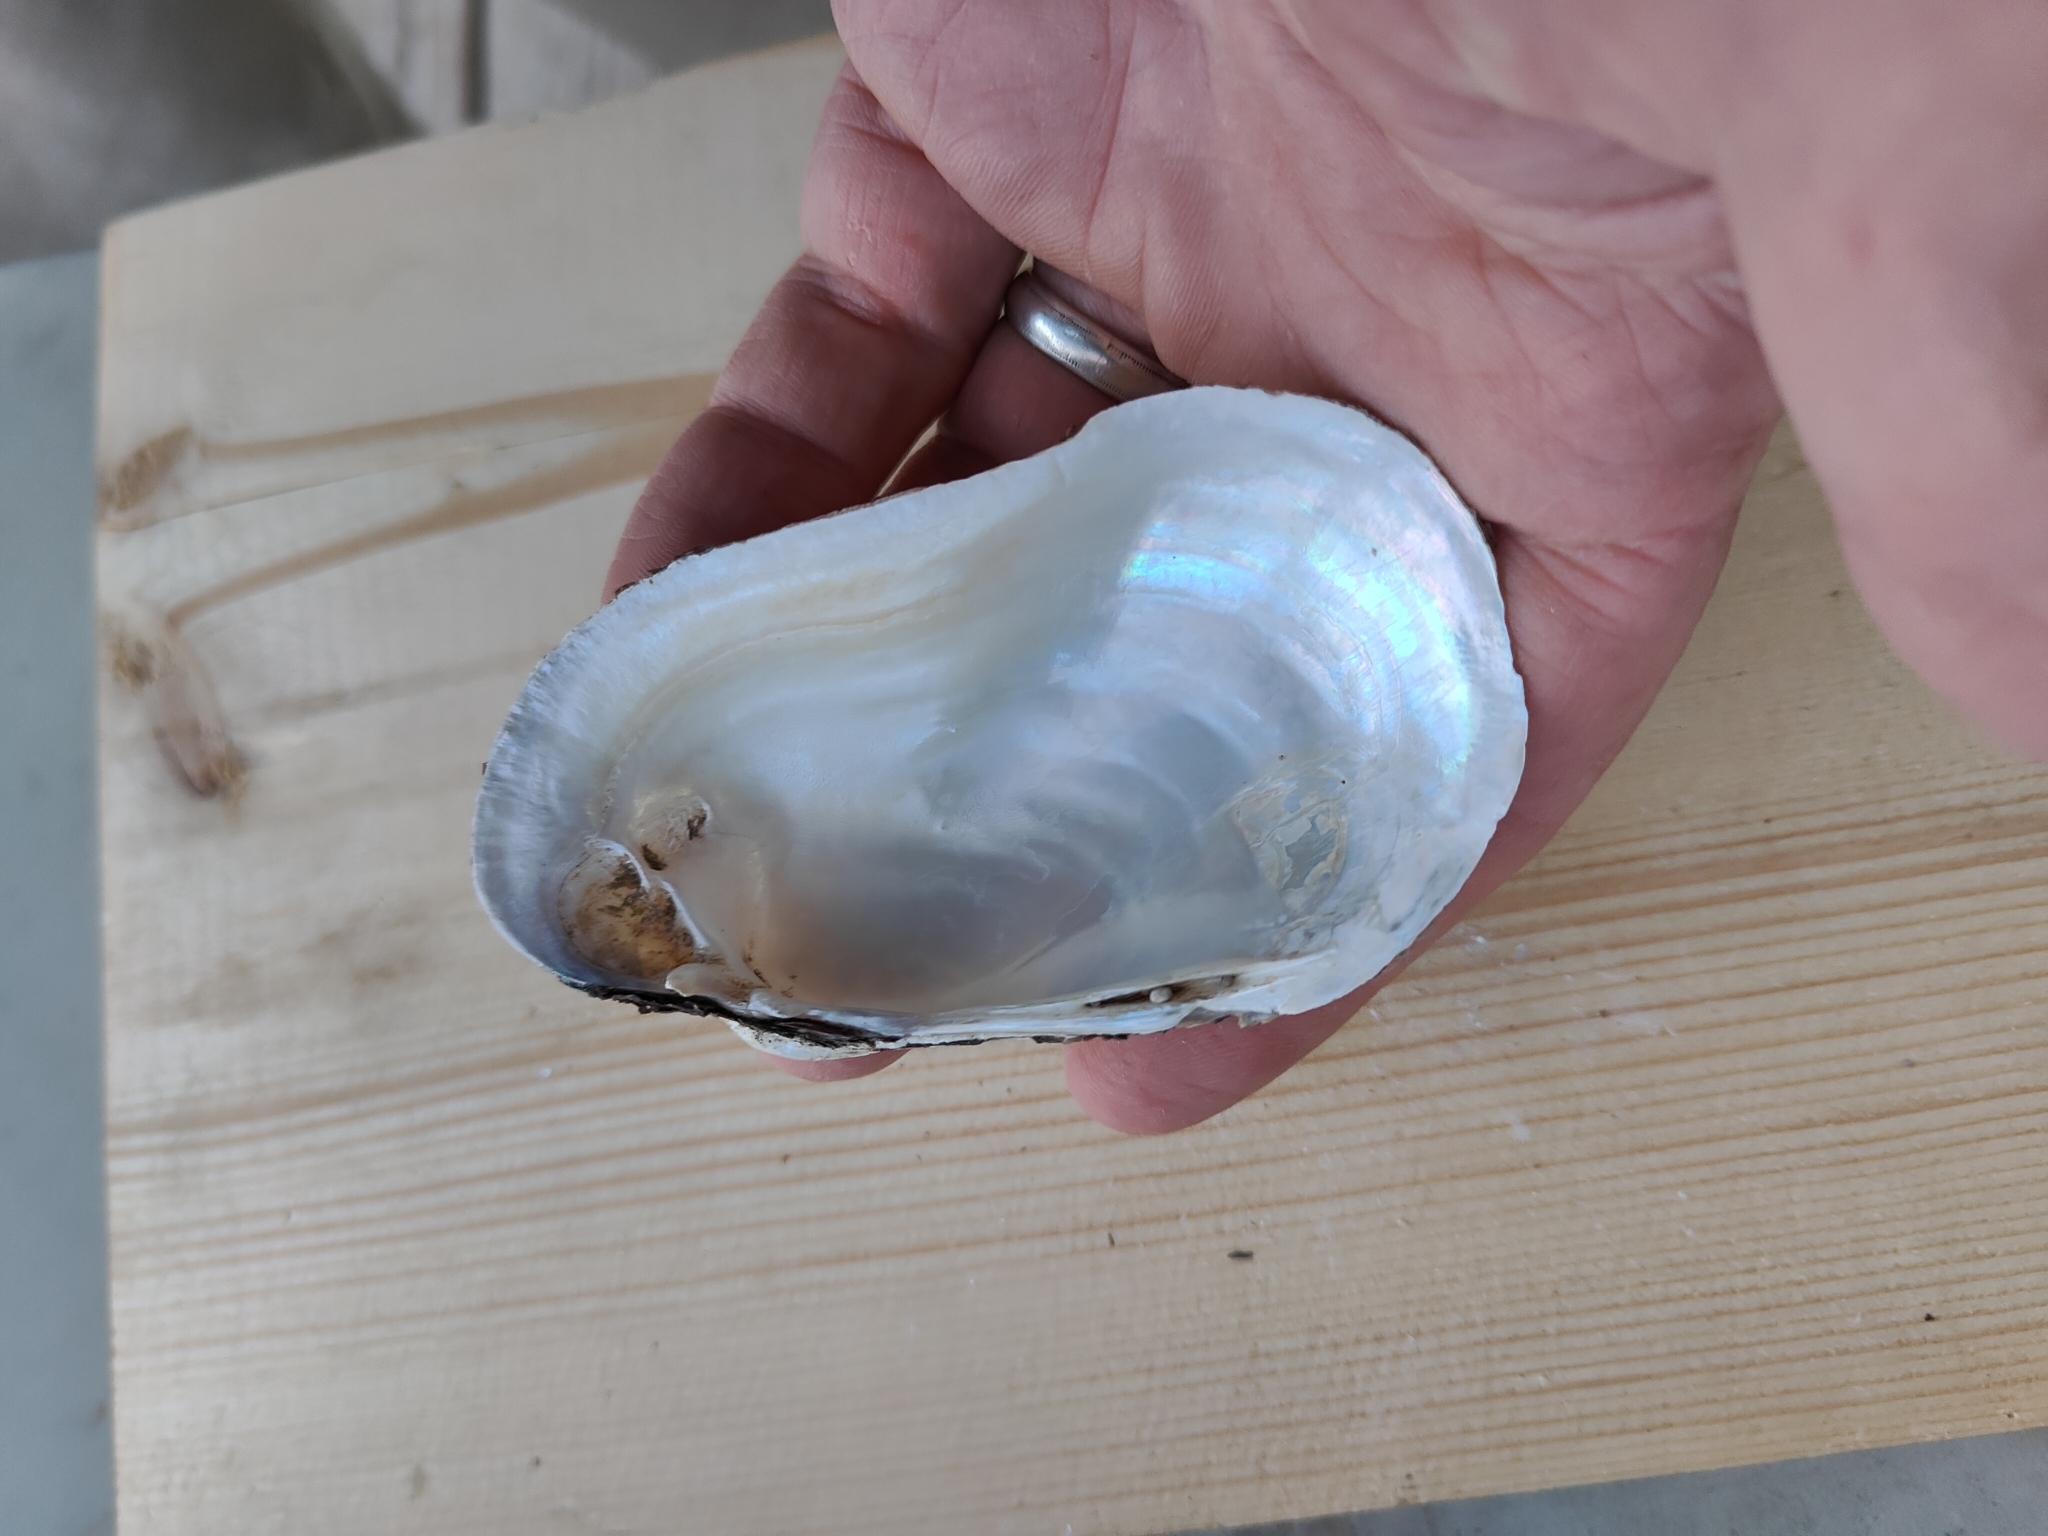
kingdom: Animalia
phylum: Mollusca
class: Bivalvia
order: Unionida
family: Unionidae
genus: Lampsilis
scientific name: Lampsilis siliquoidea
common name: Fatmucket
